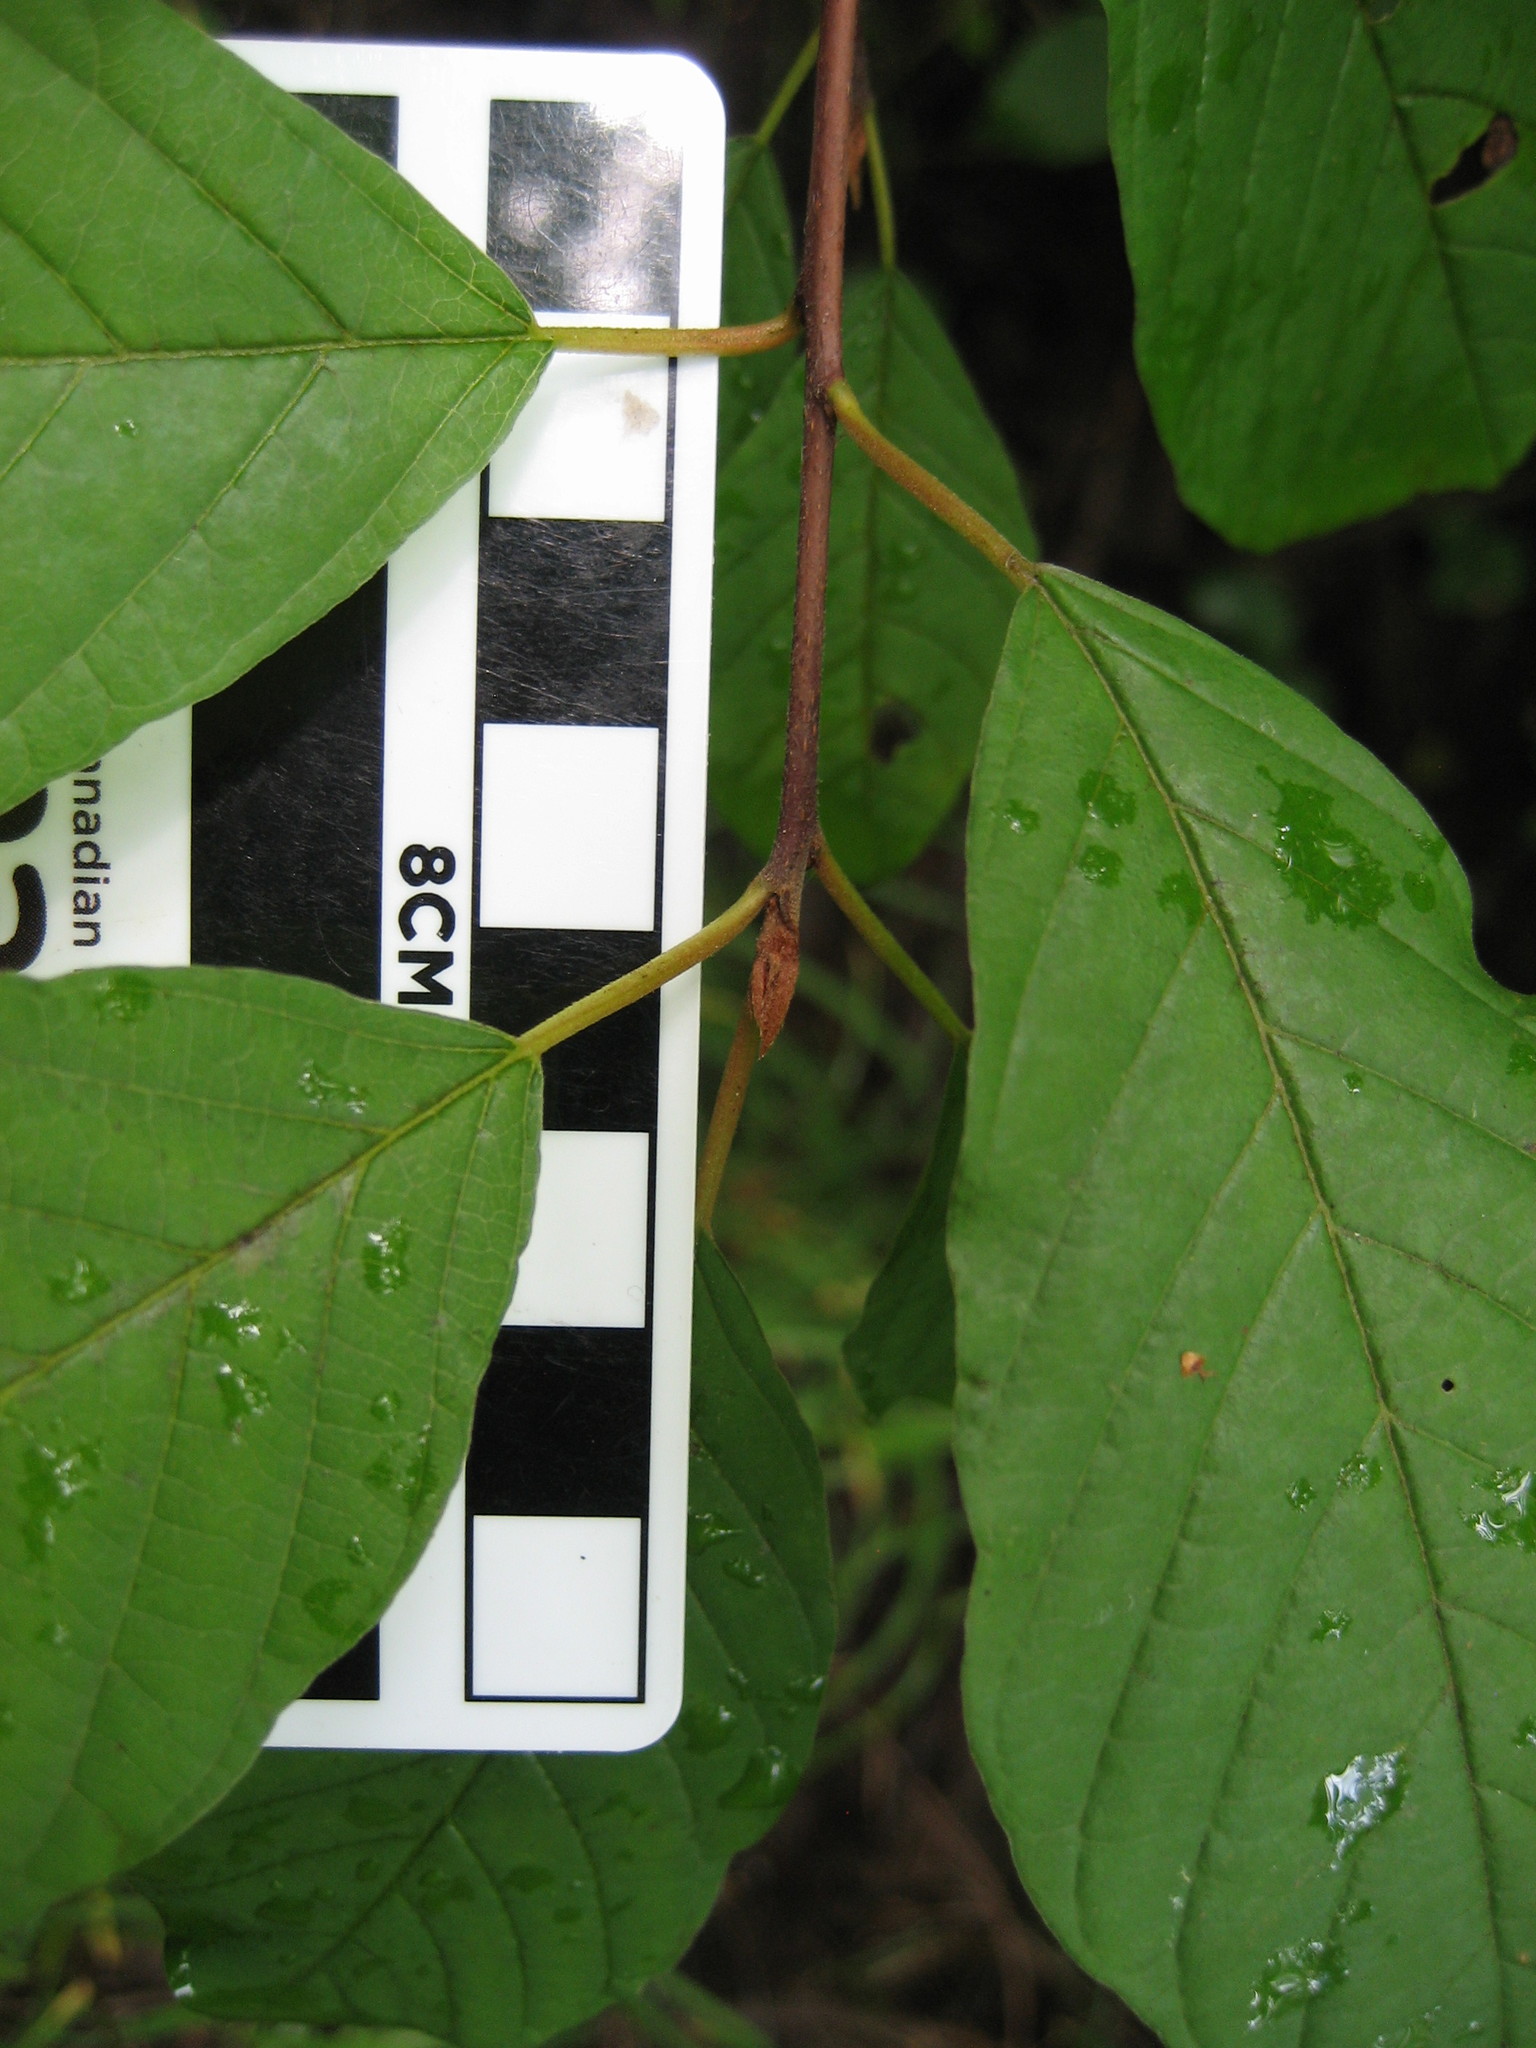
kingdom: Plantae
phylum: Tracheophyta
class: Magnoliopsida
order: Rosales
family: Rhamnaceae
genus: Frangula
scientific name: Frangula alnus
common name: Alder buckthorn
